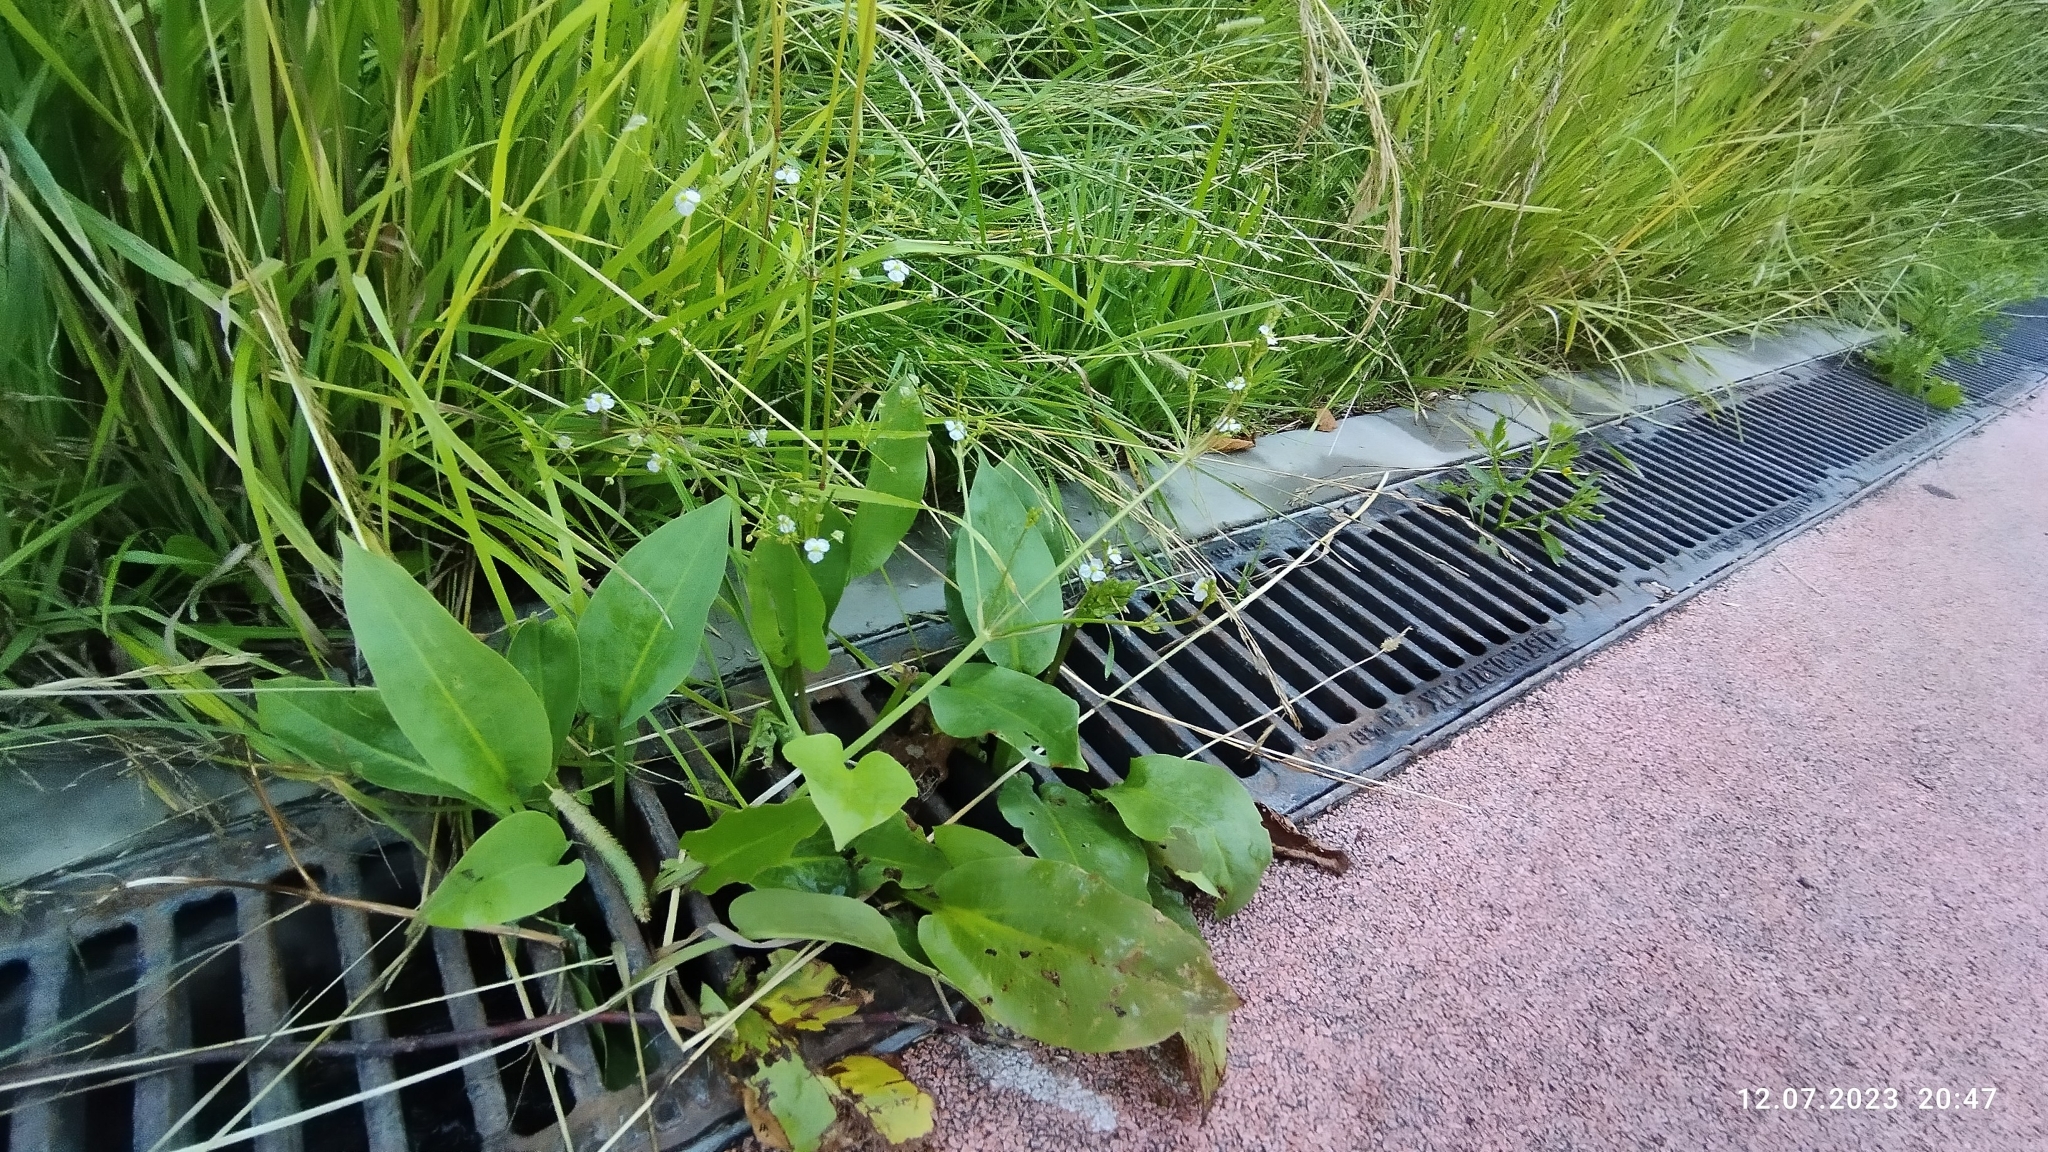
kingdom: Plantae
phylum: Tracheophyta
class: Liliopsida
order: Alismatales
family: Alismataceae
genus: Alisma
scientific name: Alisma plantago-aquatica
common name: Water-plantain
